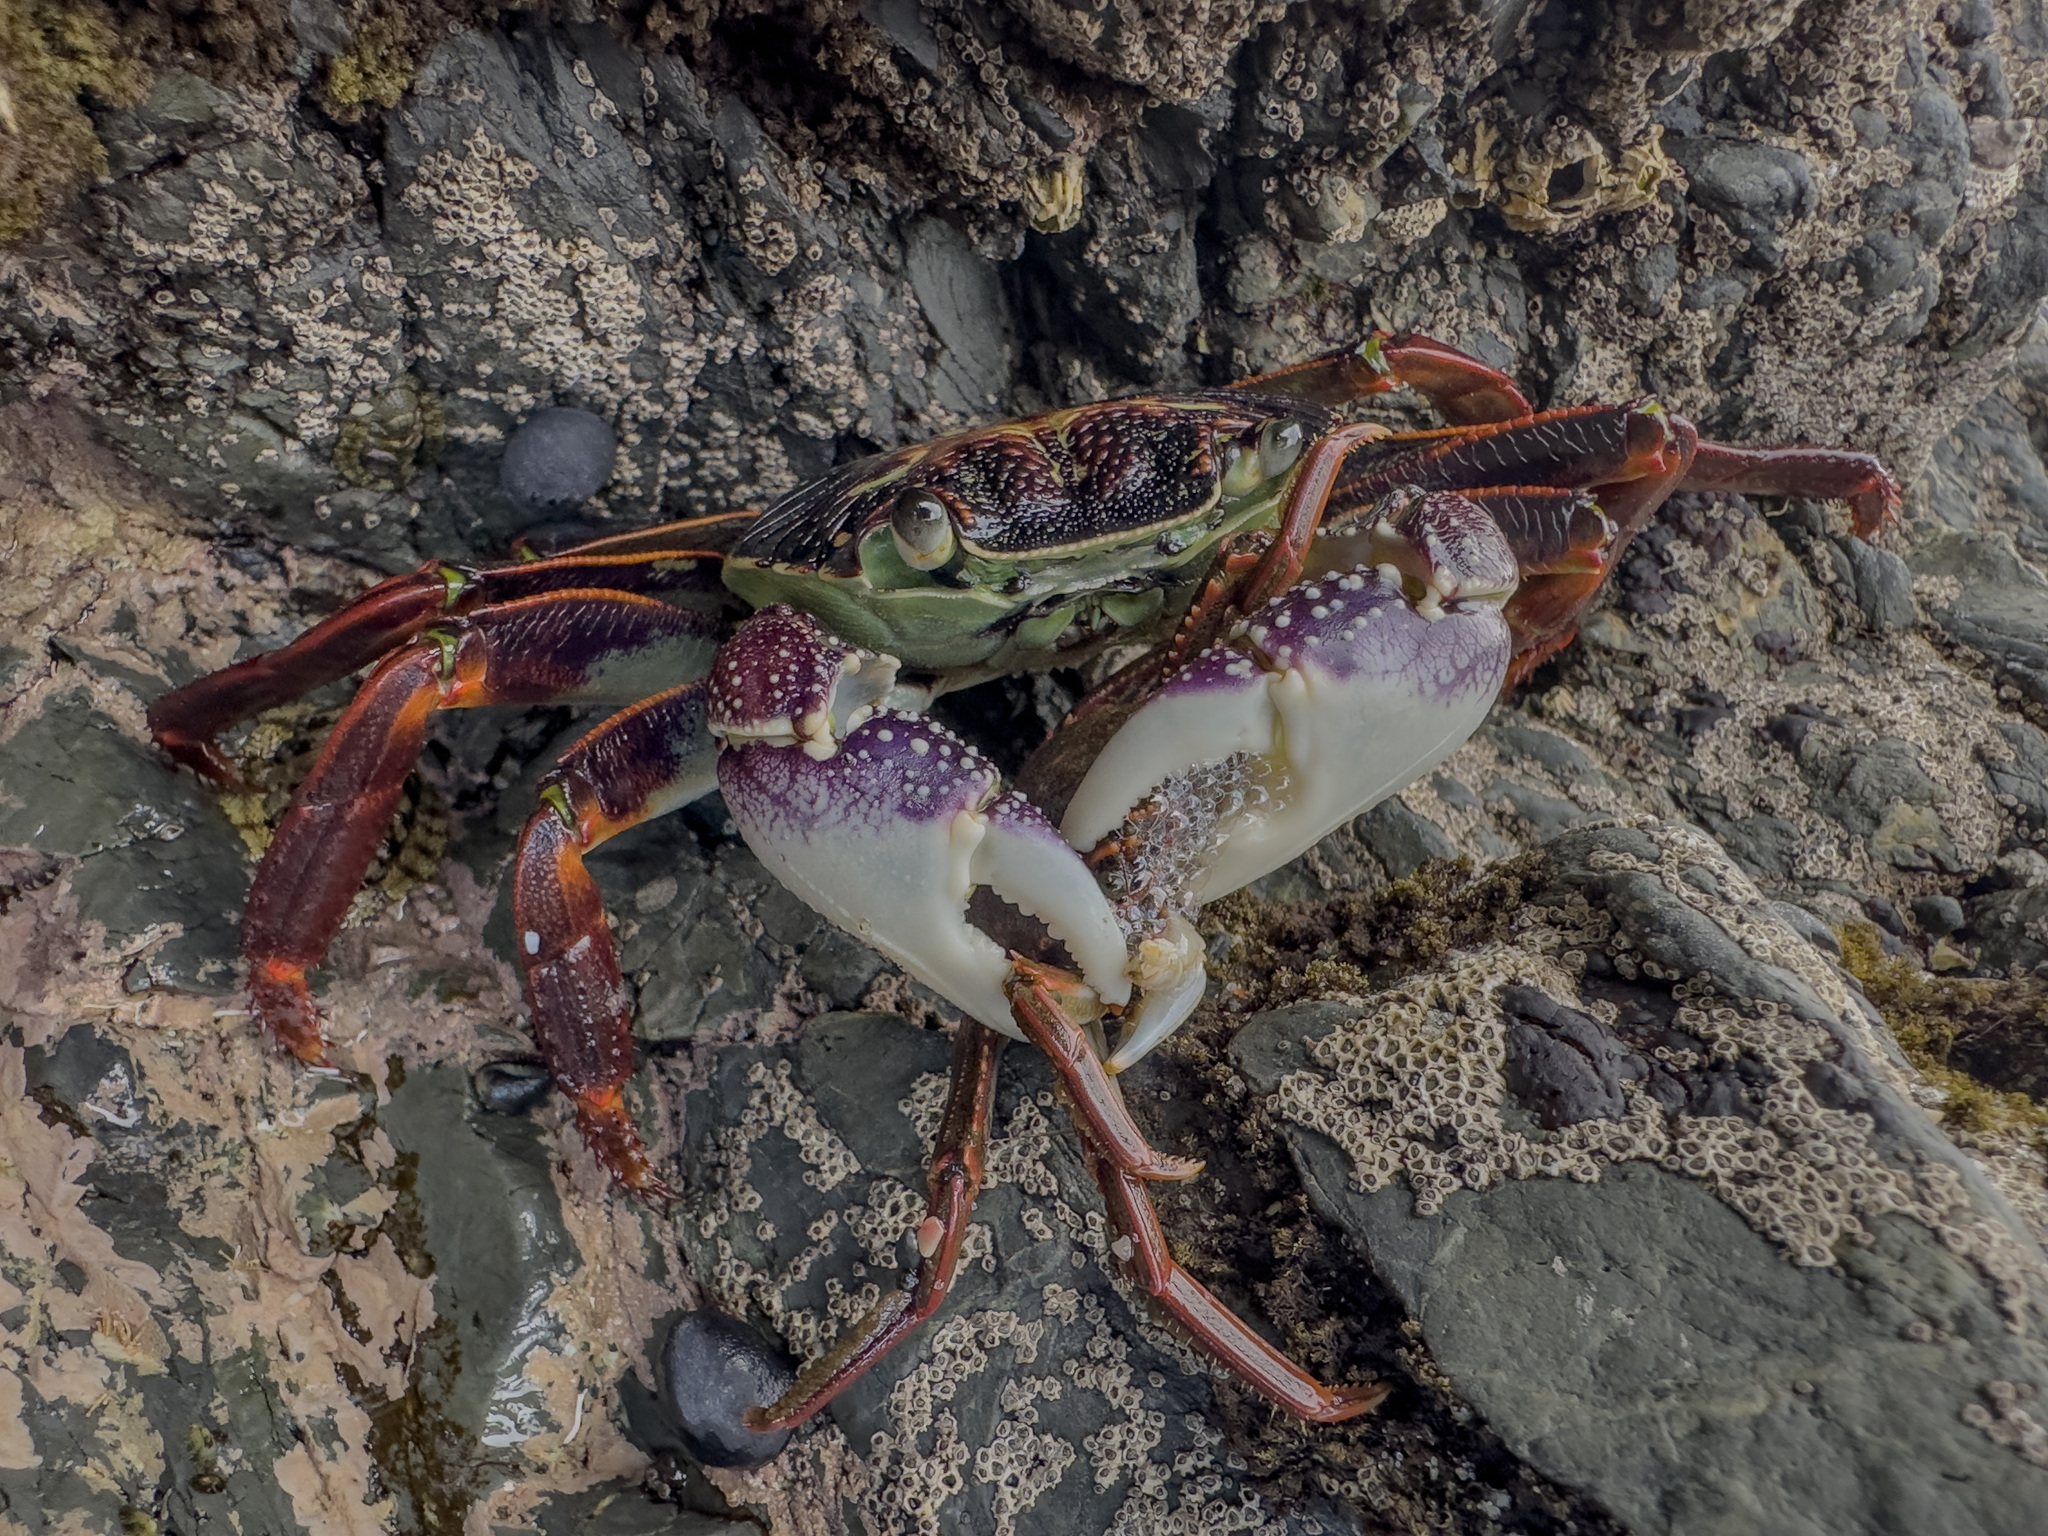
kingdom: Animalia
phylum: Arthropoda
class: Malacostraca
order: Decapoda
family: Grapsidae
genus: Leptograpsus
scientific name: Leptograpsus variegatus
